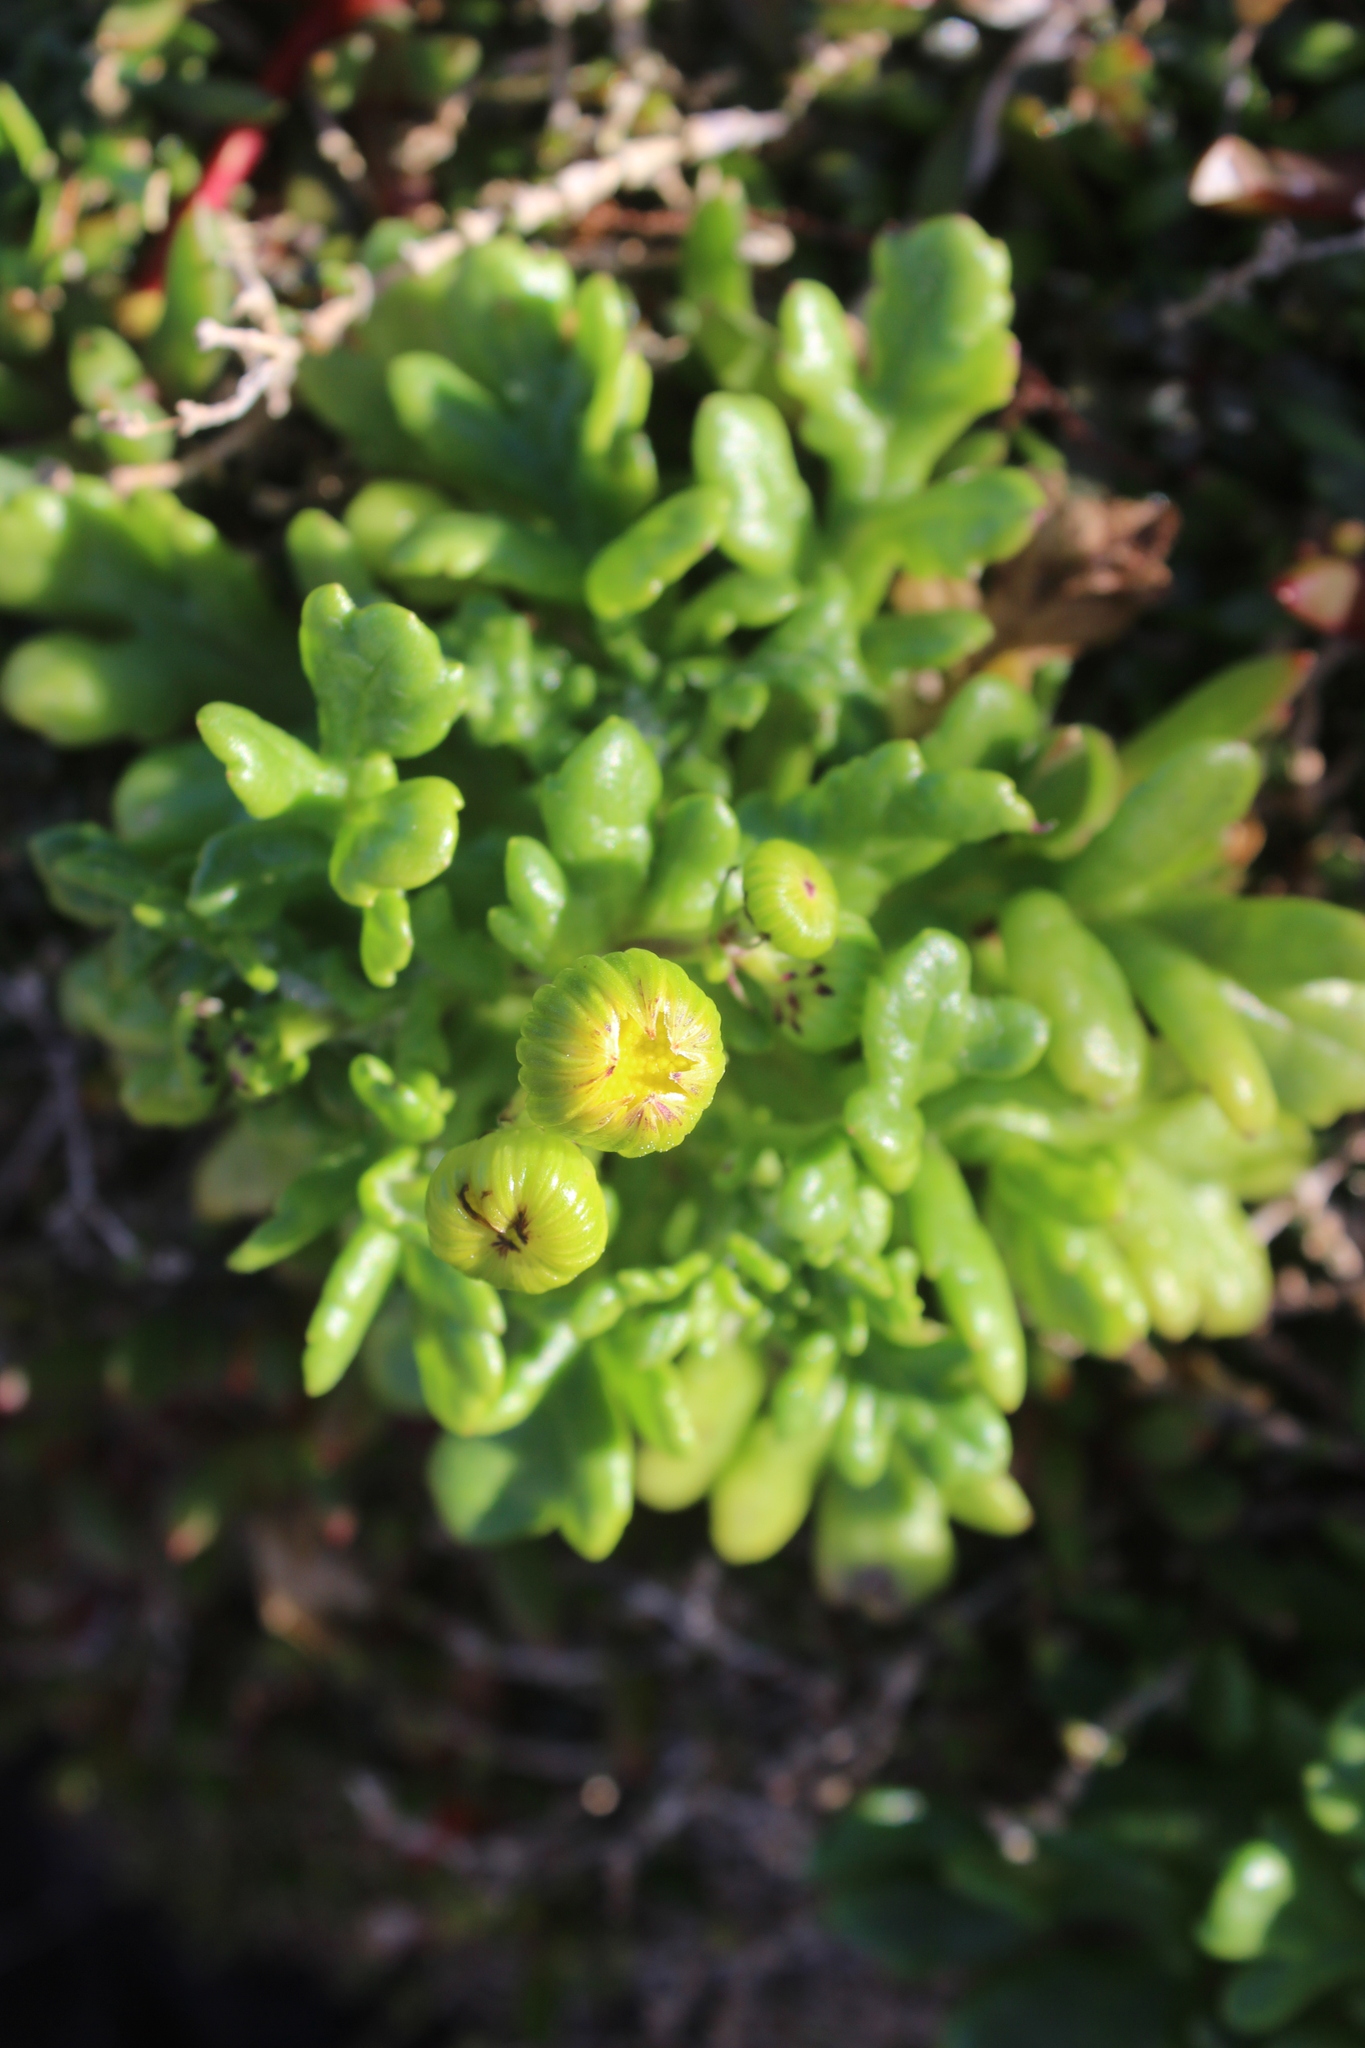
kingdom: Plantae
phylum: Tracheophyta
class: Magnoliopsida
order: Asterales
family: Asteraceae
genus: Senecio
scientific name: Senecio sterquilinus
